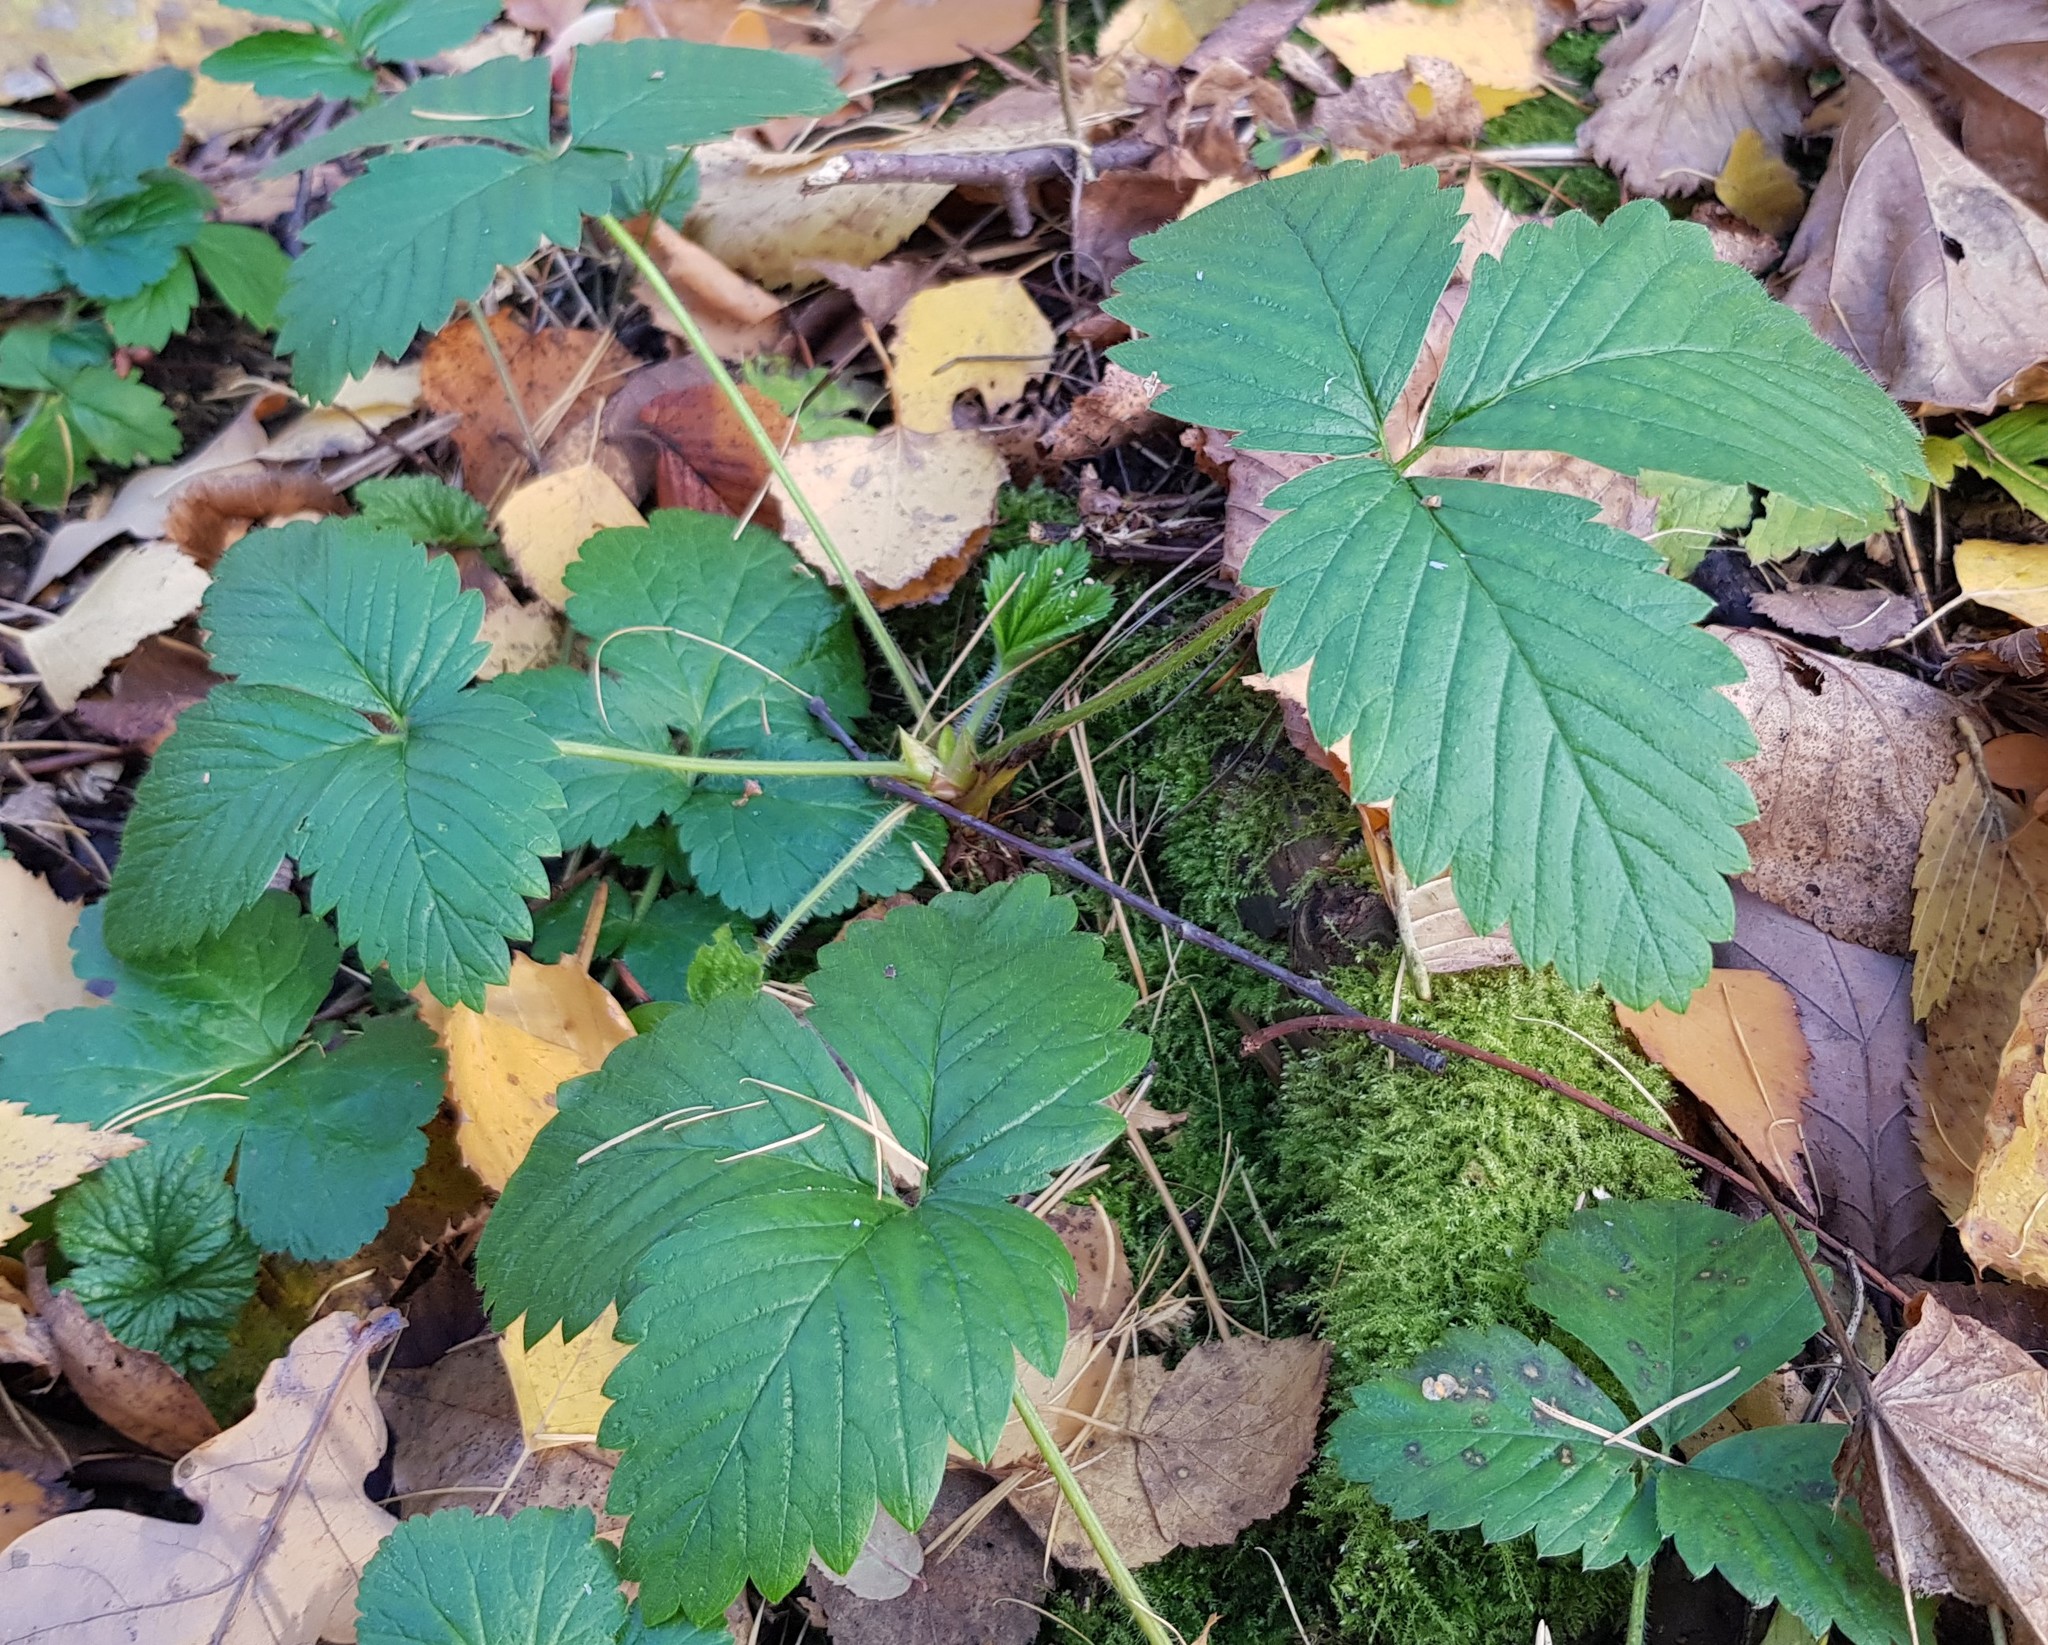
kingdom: Plantae
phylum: Tracheophyta
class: Magnoliopsida
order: Rosales
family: Rosaceae
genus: Fragaria
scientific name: Fragaria moschata
